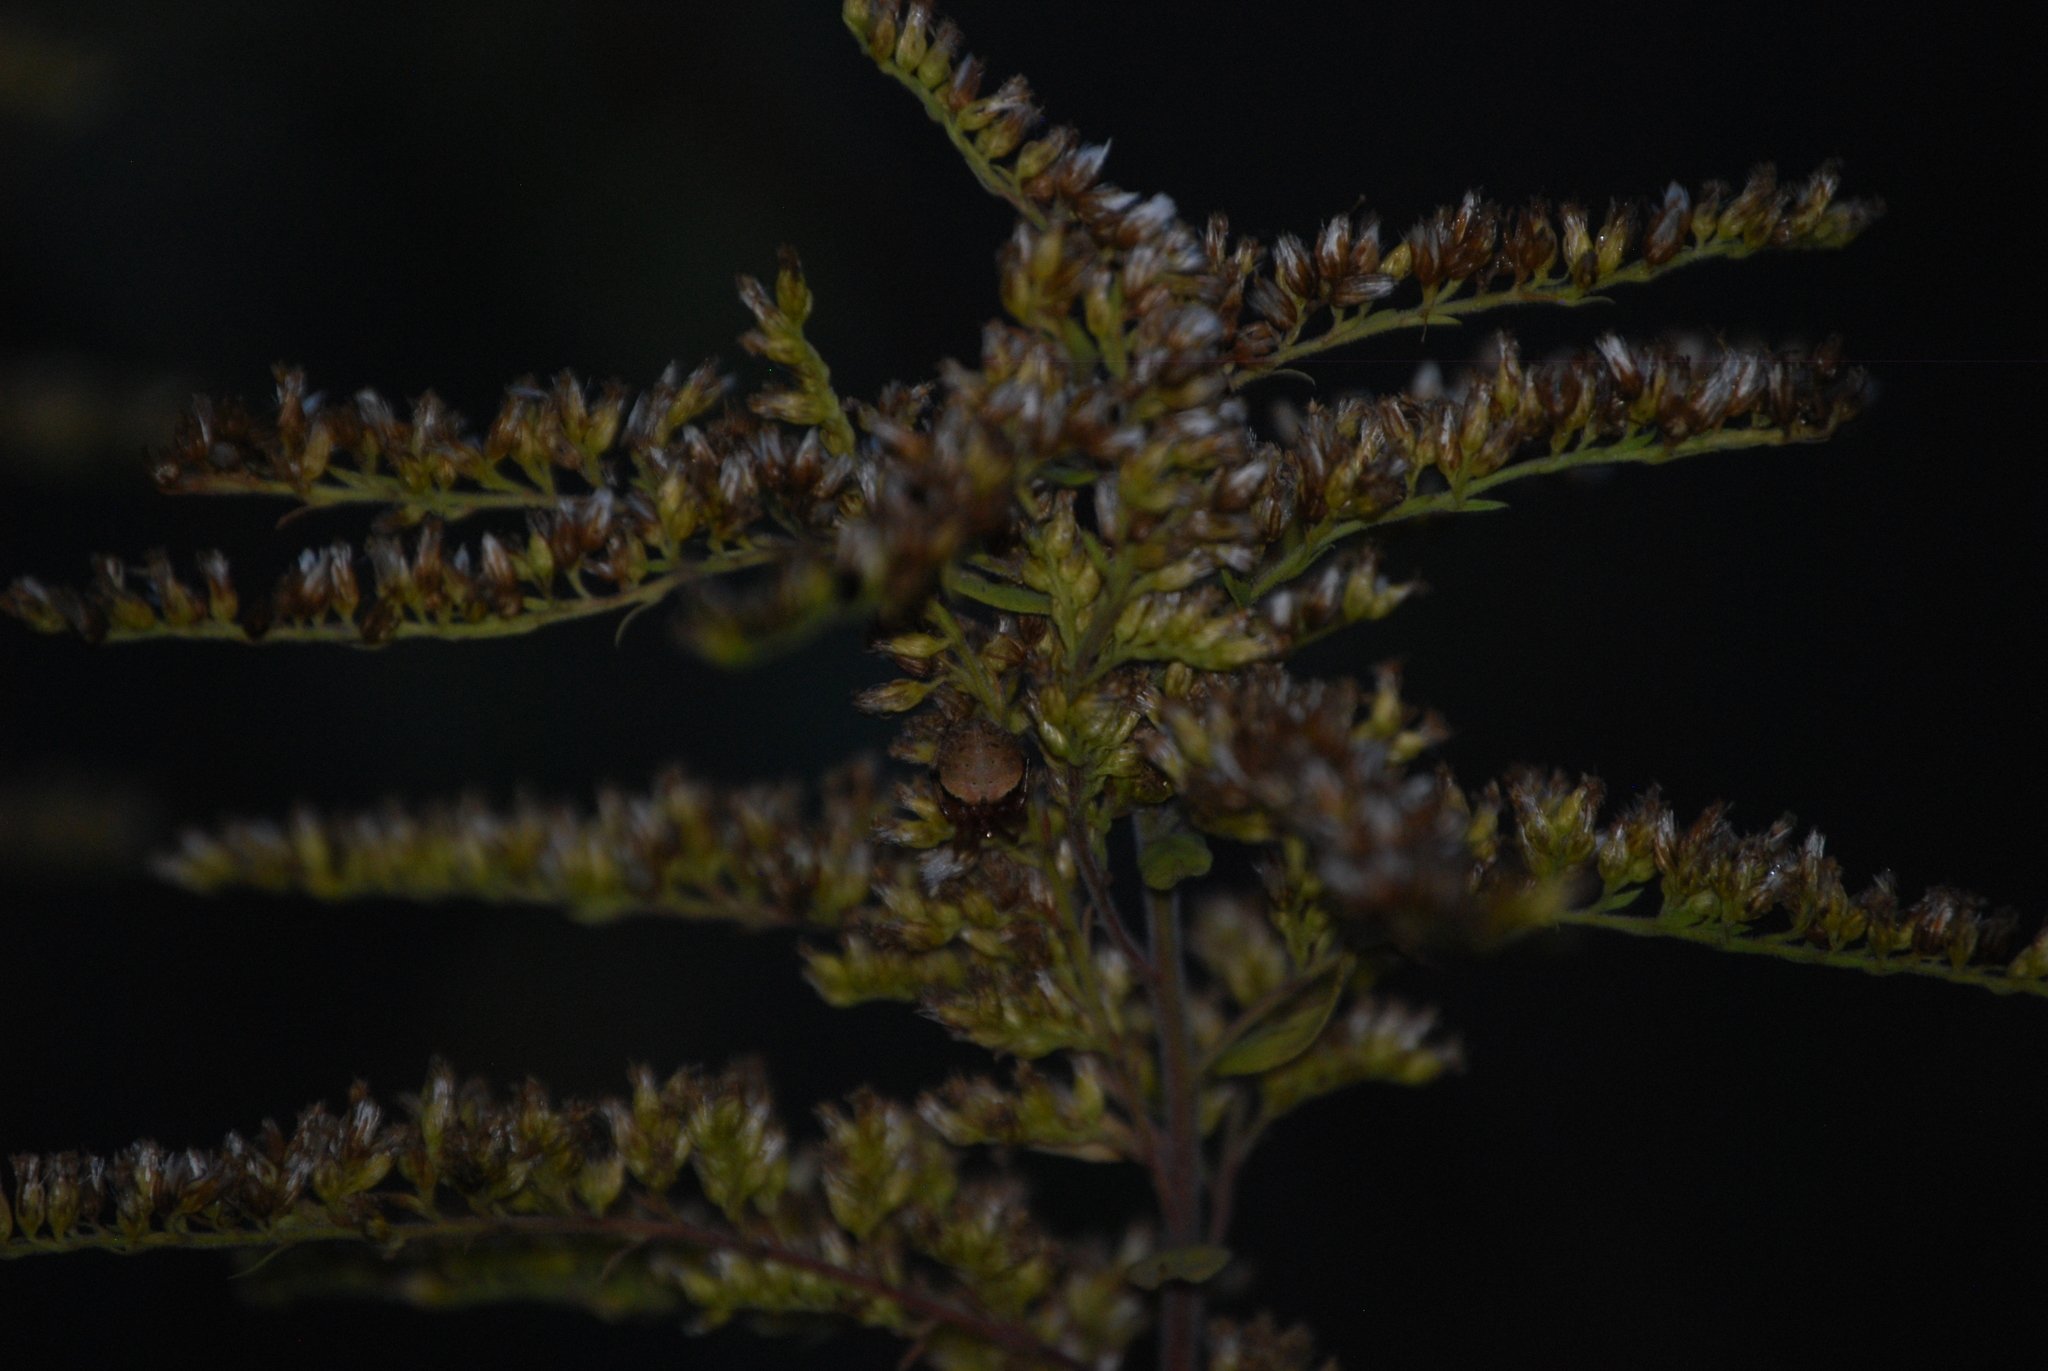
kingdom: Animalia
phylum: Arthropoda
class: Arachnida
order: Araneae
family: Araneidae
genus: Neoscona
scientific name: Neoscona crucifera
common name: Spotted orbweaver
